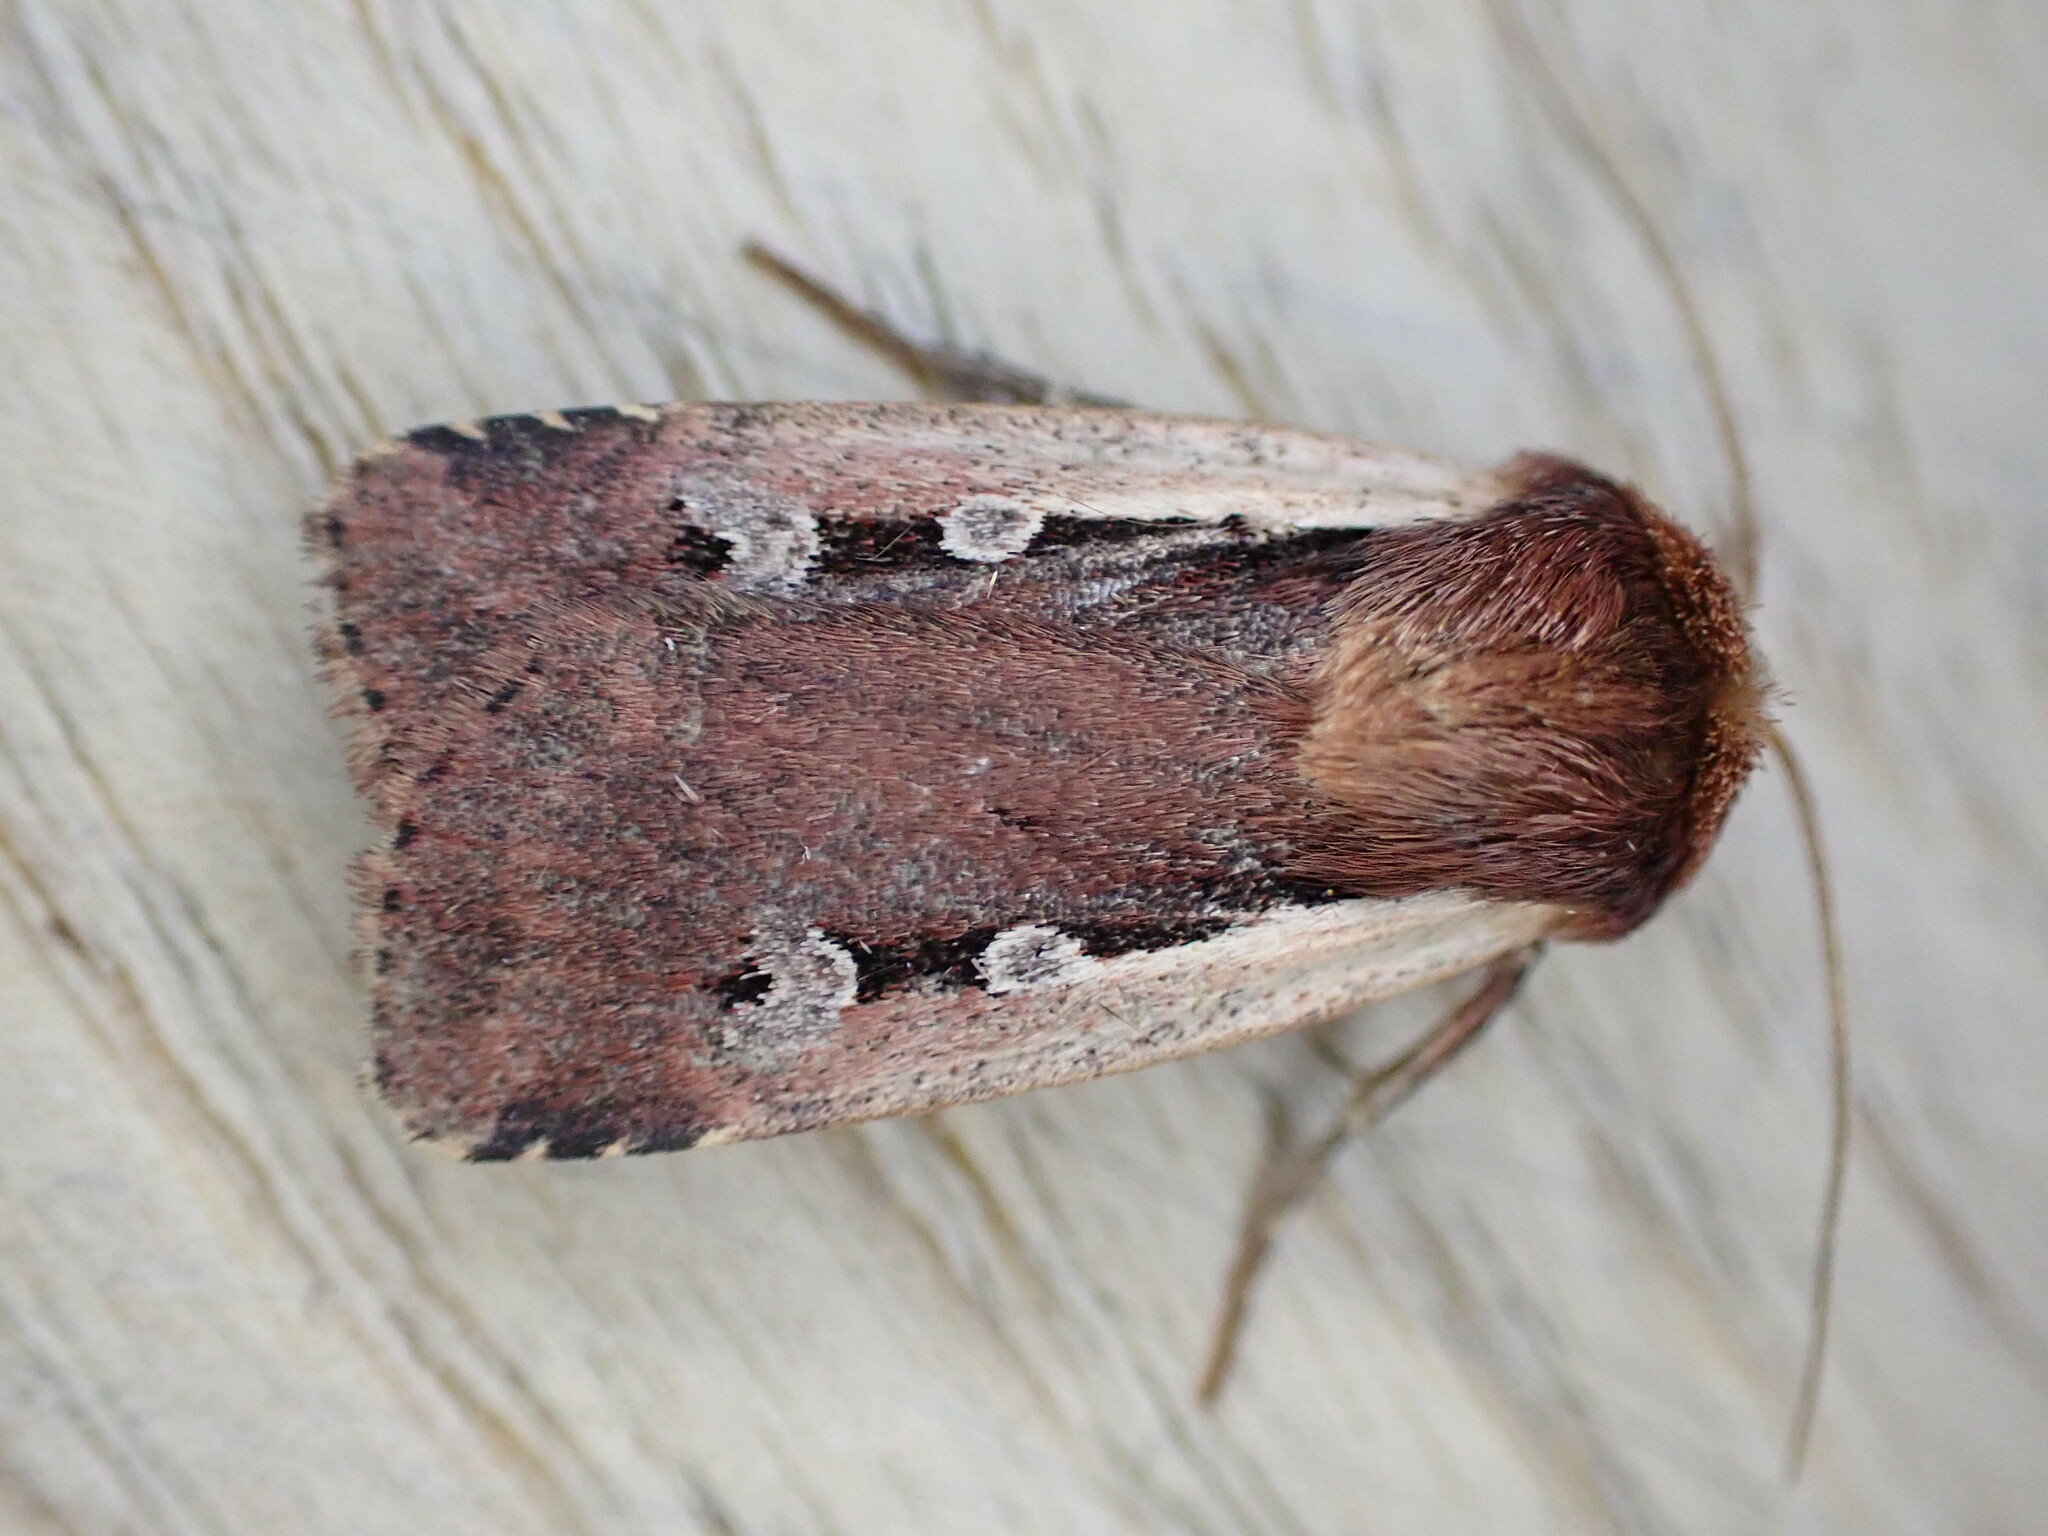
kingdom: Animalia
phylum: Arthropoda
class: Insecta
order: Lepidoptera
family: Noctuidae
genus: Ochropleura
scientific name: Ochropleura plecta
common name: Flame shoulder
